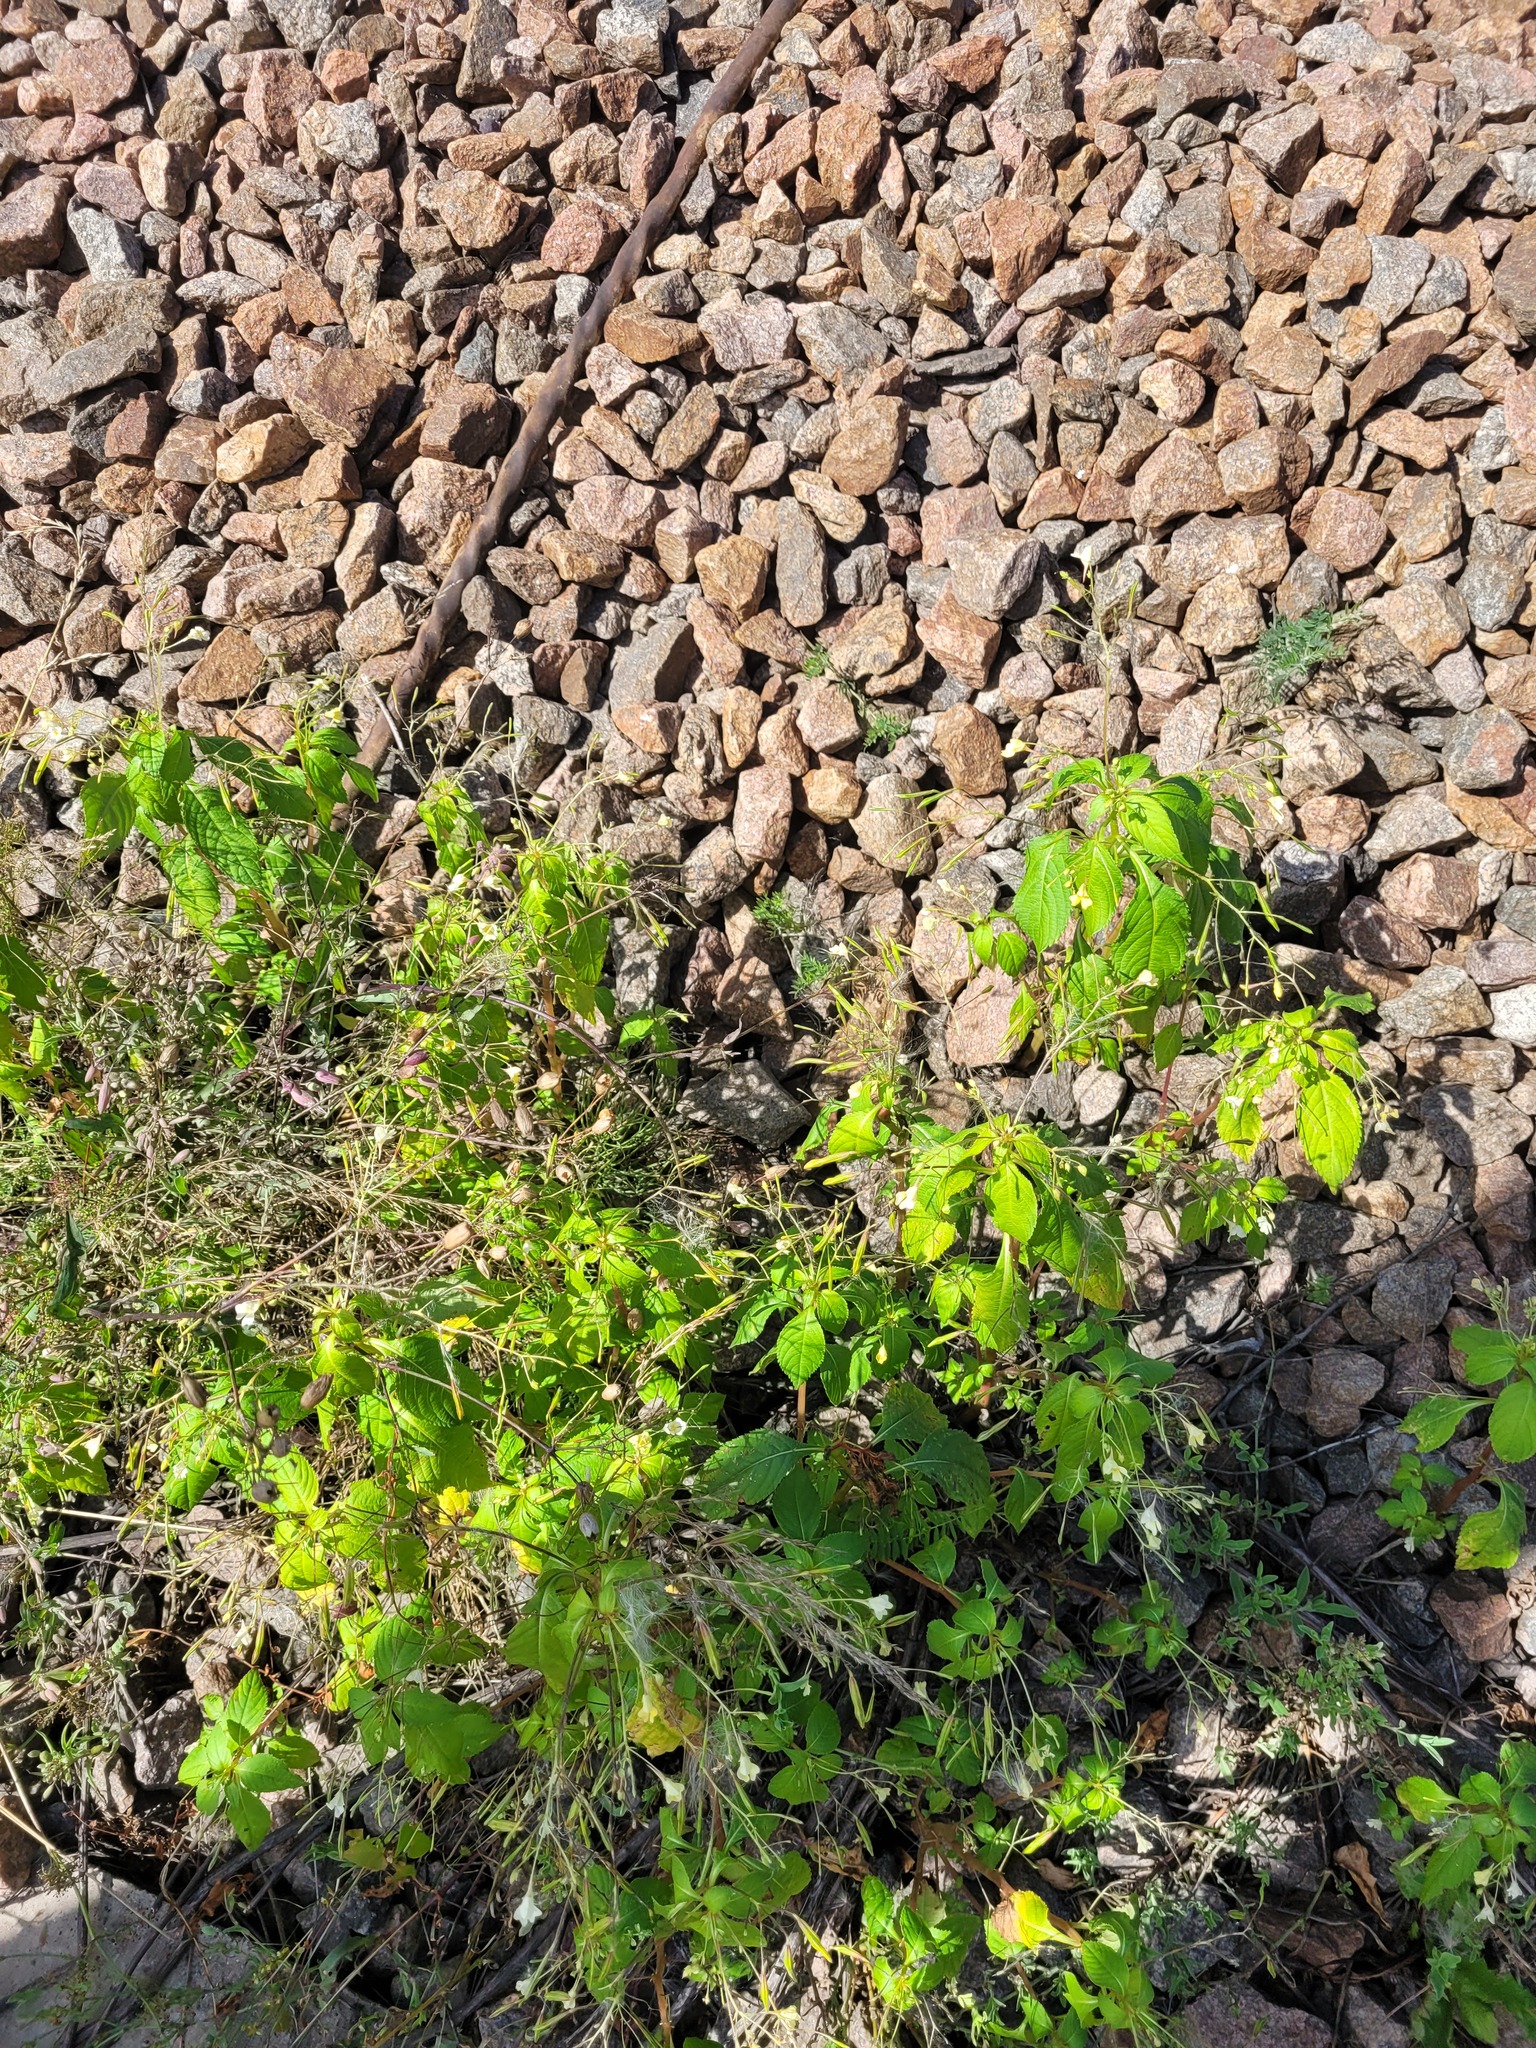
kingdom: Plantae
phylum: Tracheophyta
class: Magnoliopsida
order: Ericales
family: Balsaminaceae
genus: Impatiens
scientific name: Impatiens parviflora
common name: Small balsam
